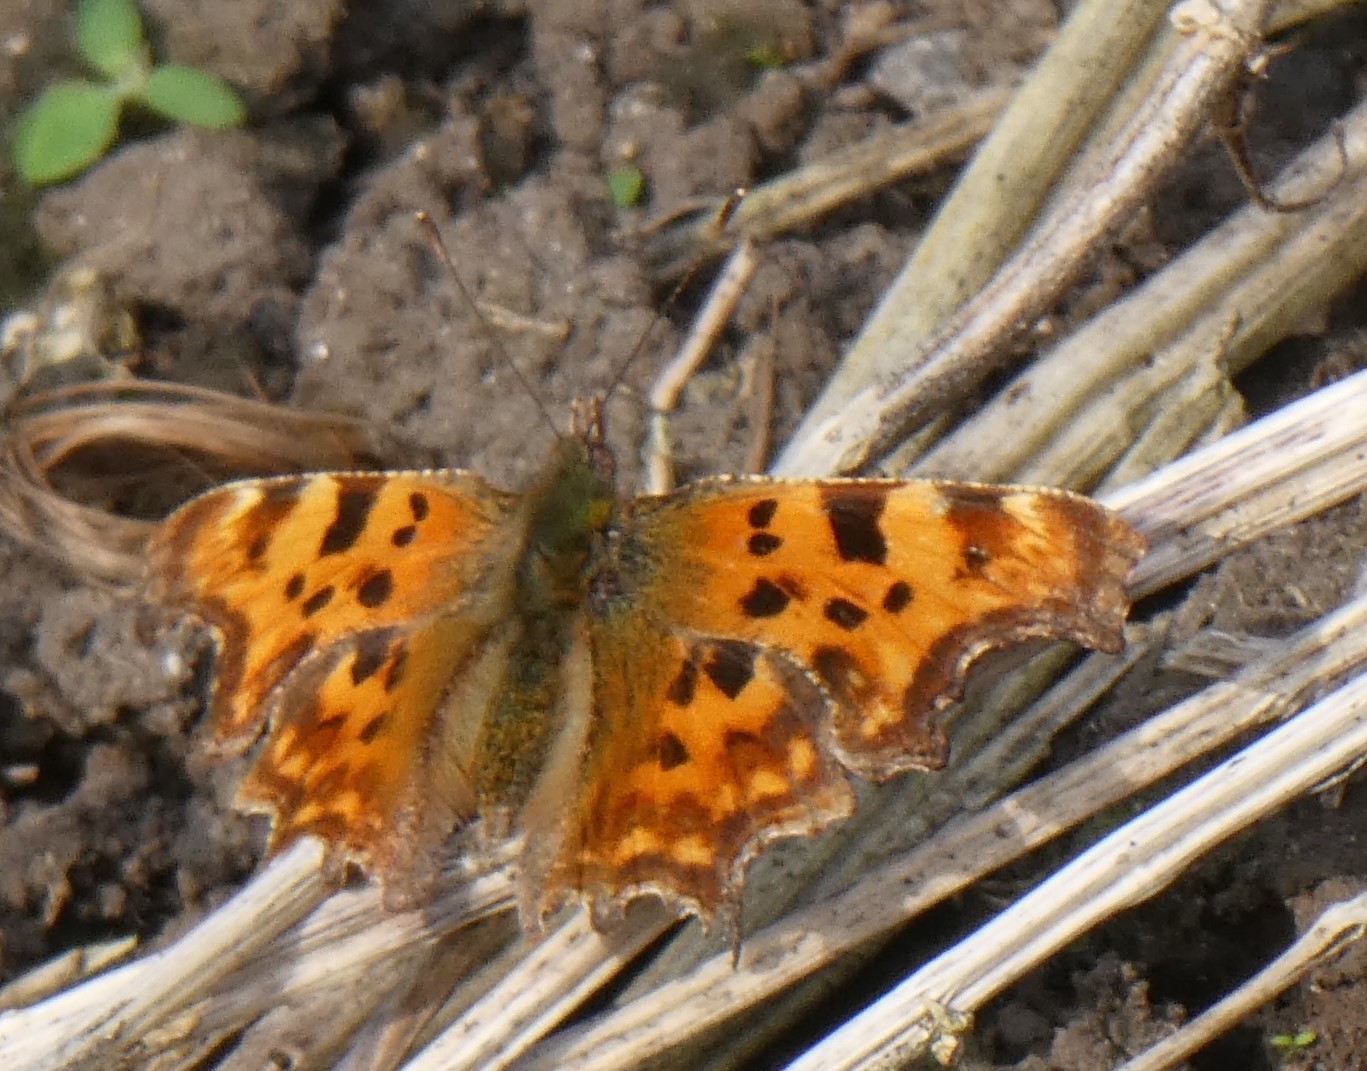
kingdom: Animalia
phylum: Arthropoda
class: Insecta
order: Lepidoptera
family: Nymphalidae
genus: Polygonia
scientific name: Polygonia c-album
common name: Comma
